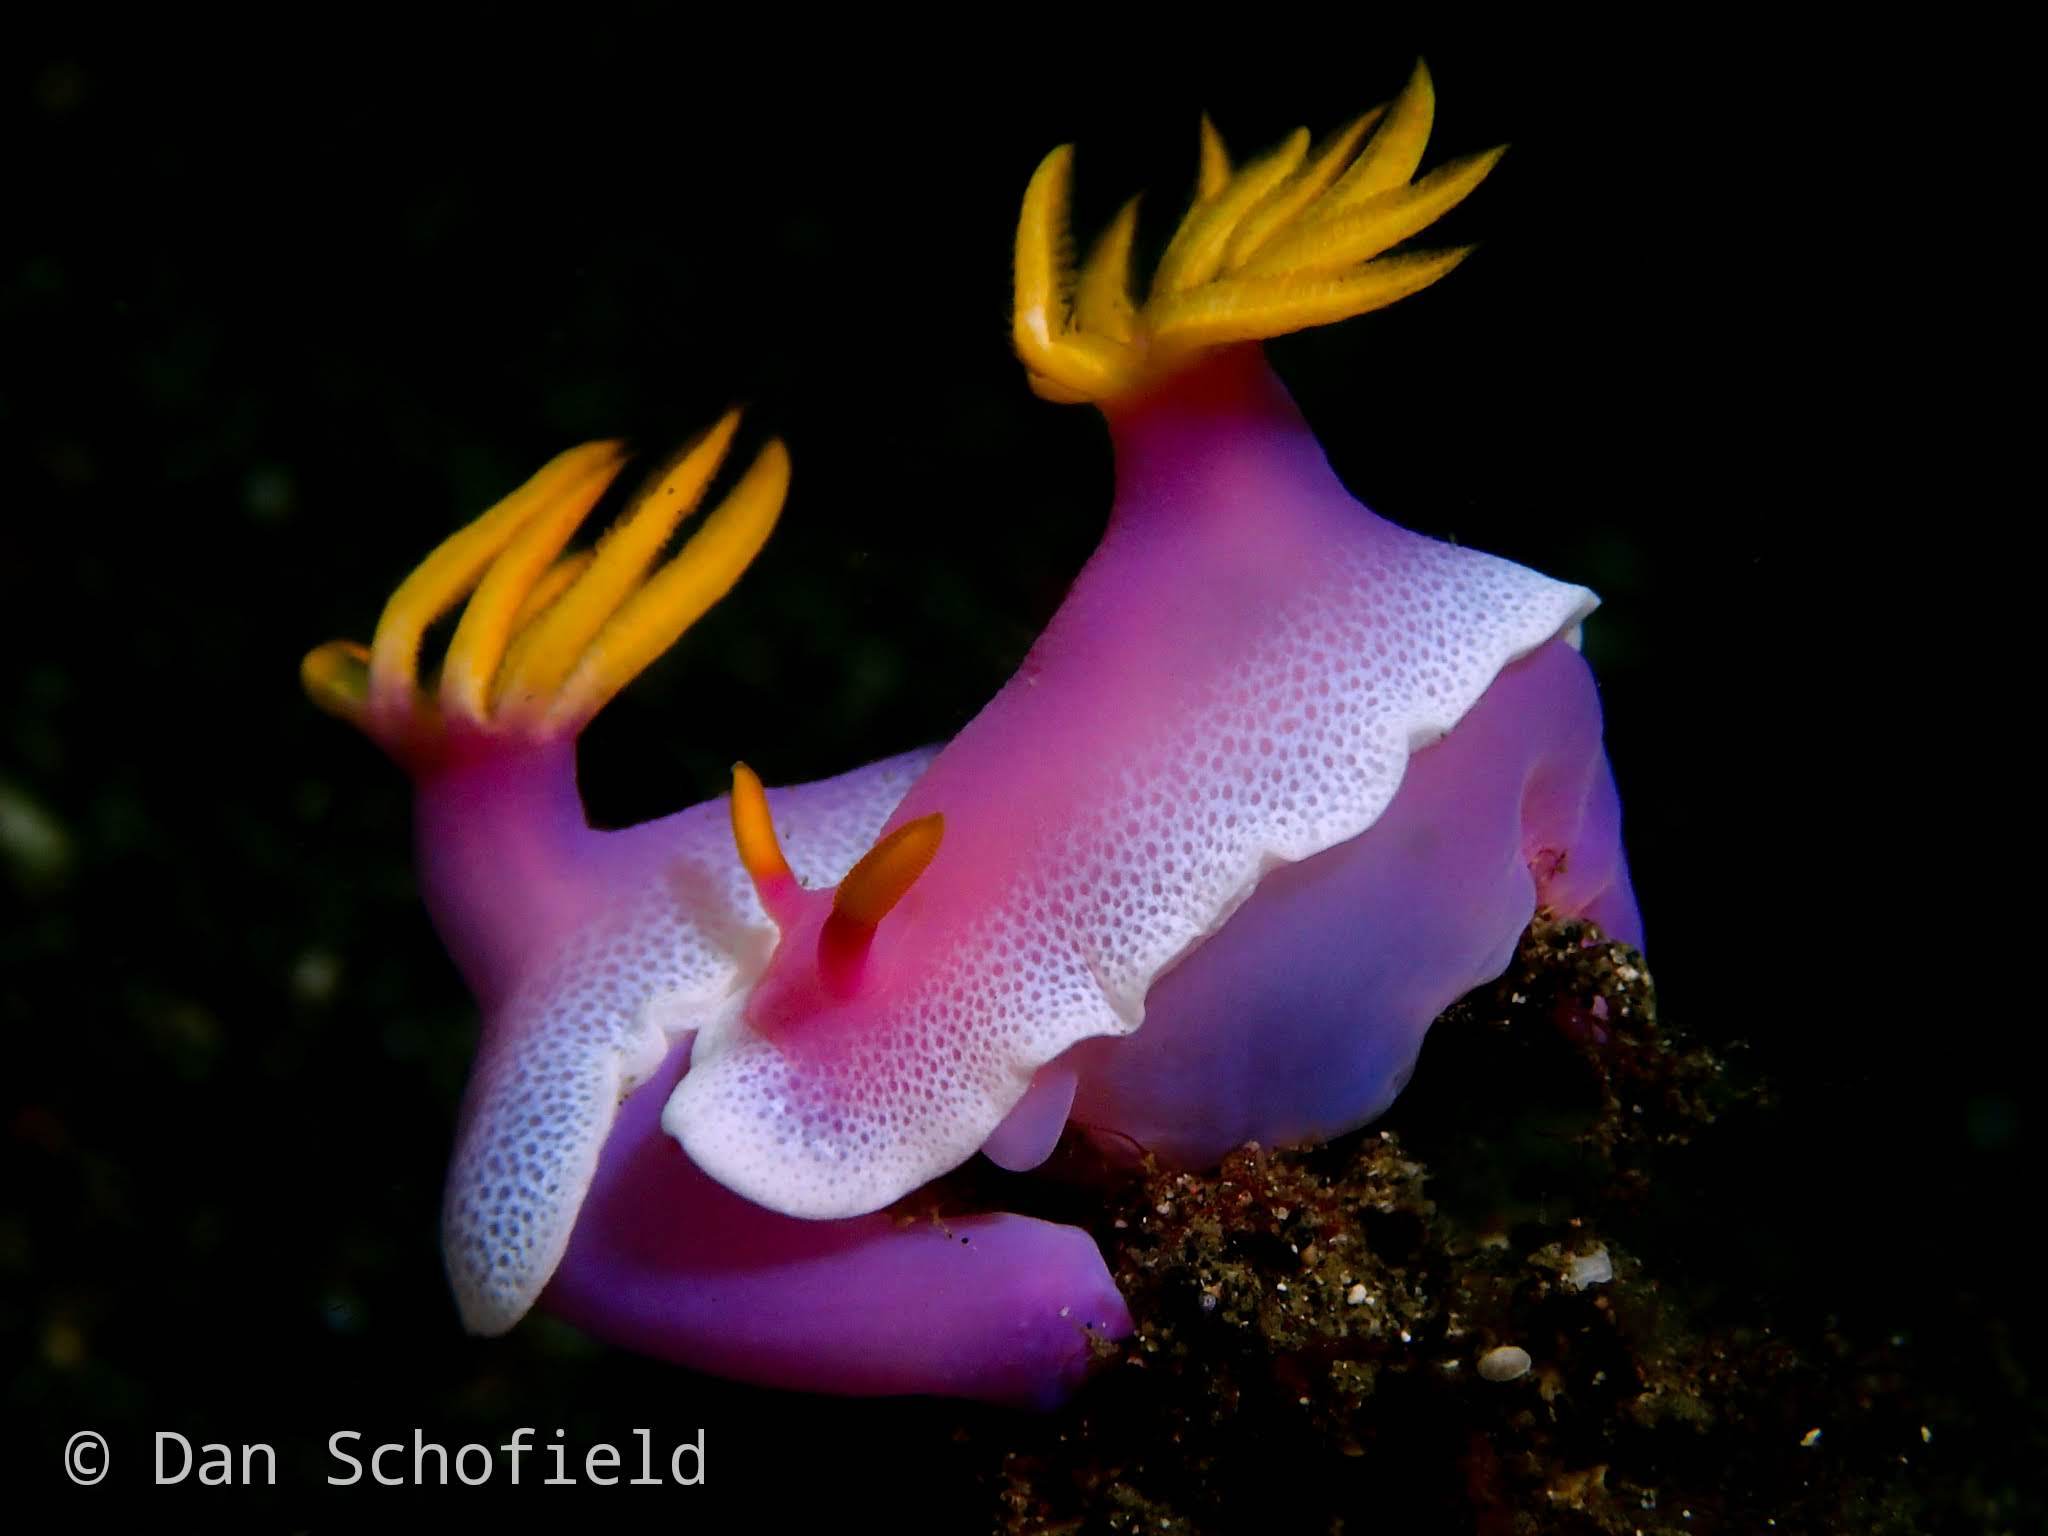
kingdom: Animalia
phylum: Mollusca
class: Gastropoda
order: Nudibranchia
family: Chromodorididae
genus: Hypselodoris
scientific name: Hypselodoris apolegma
